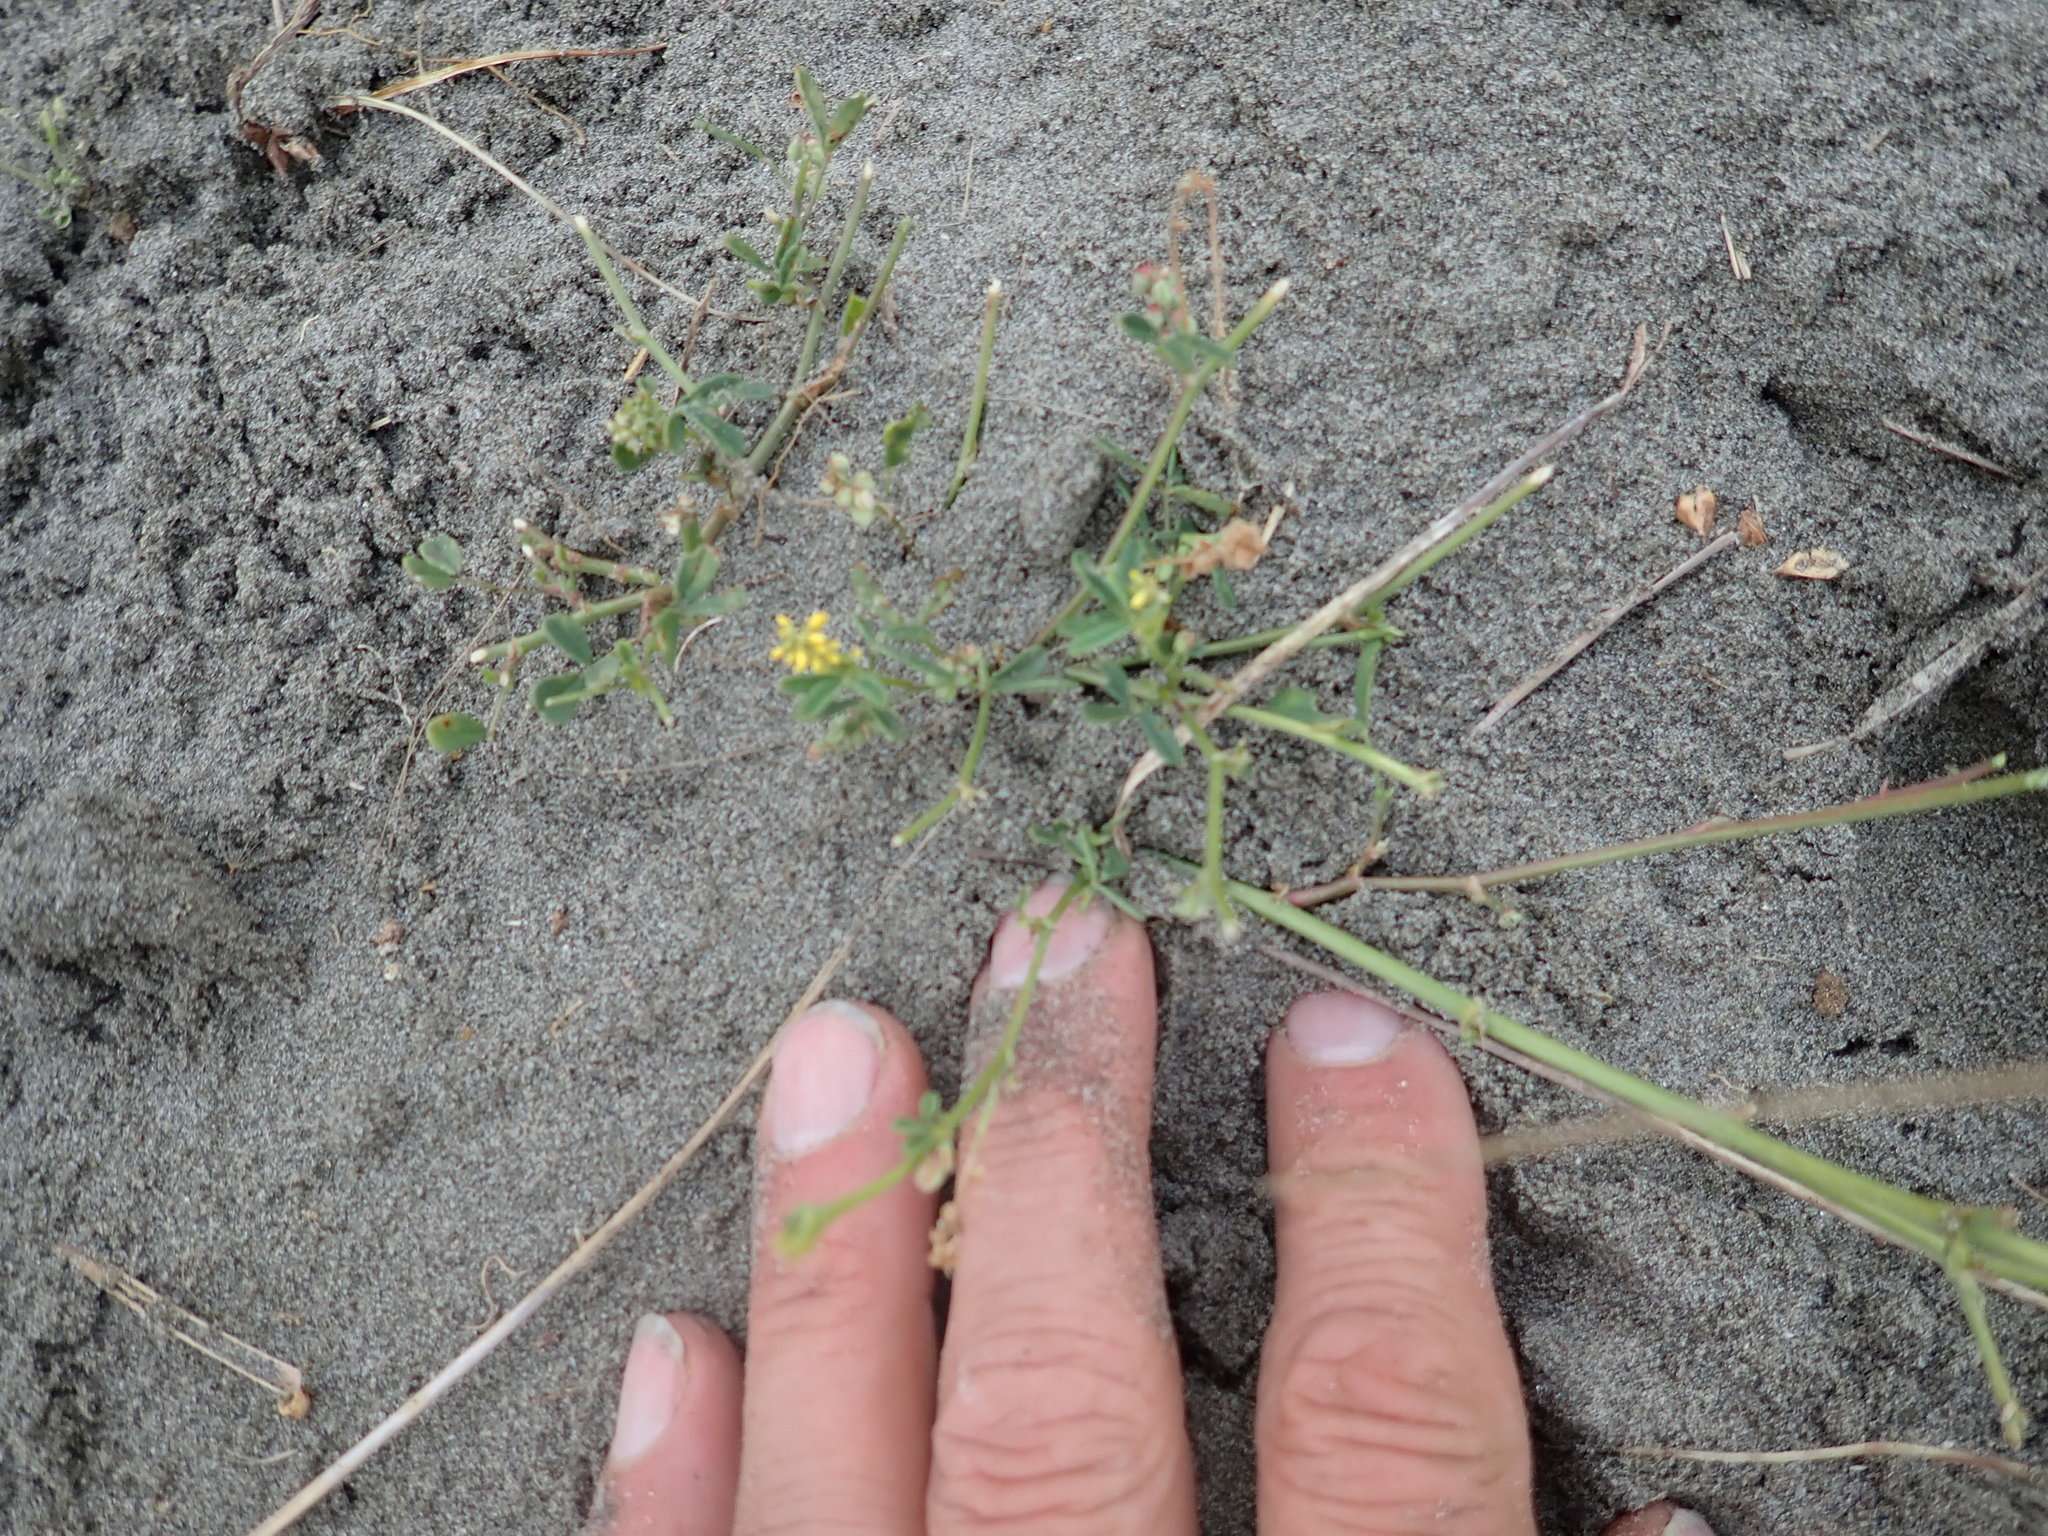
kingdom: Plantae
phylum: Tracheophyta
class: Magnoliopsida
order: Fabales
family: Fabaceae
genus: Melilotus
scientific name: Melilotus indicus
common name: Small melilot
